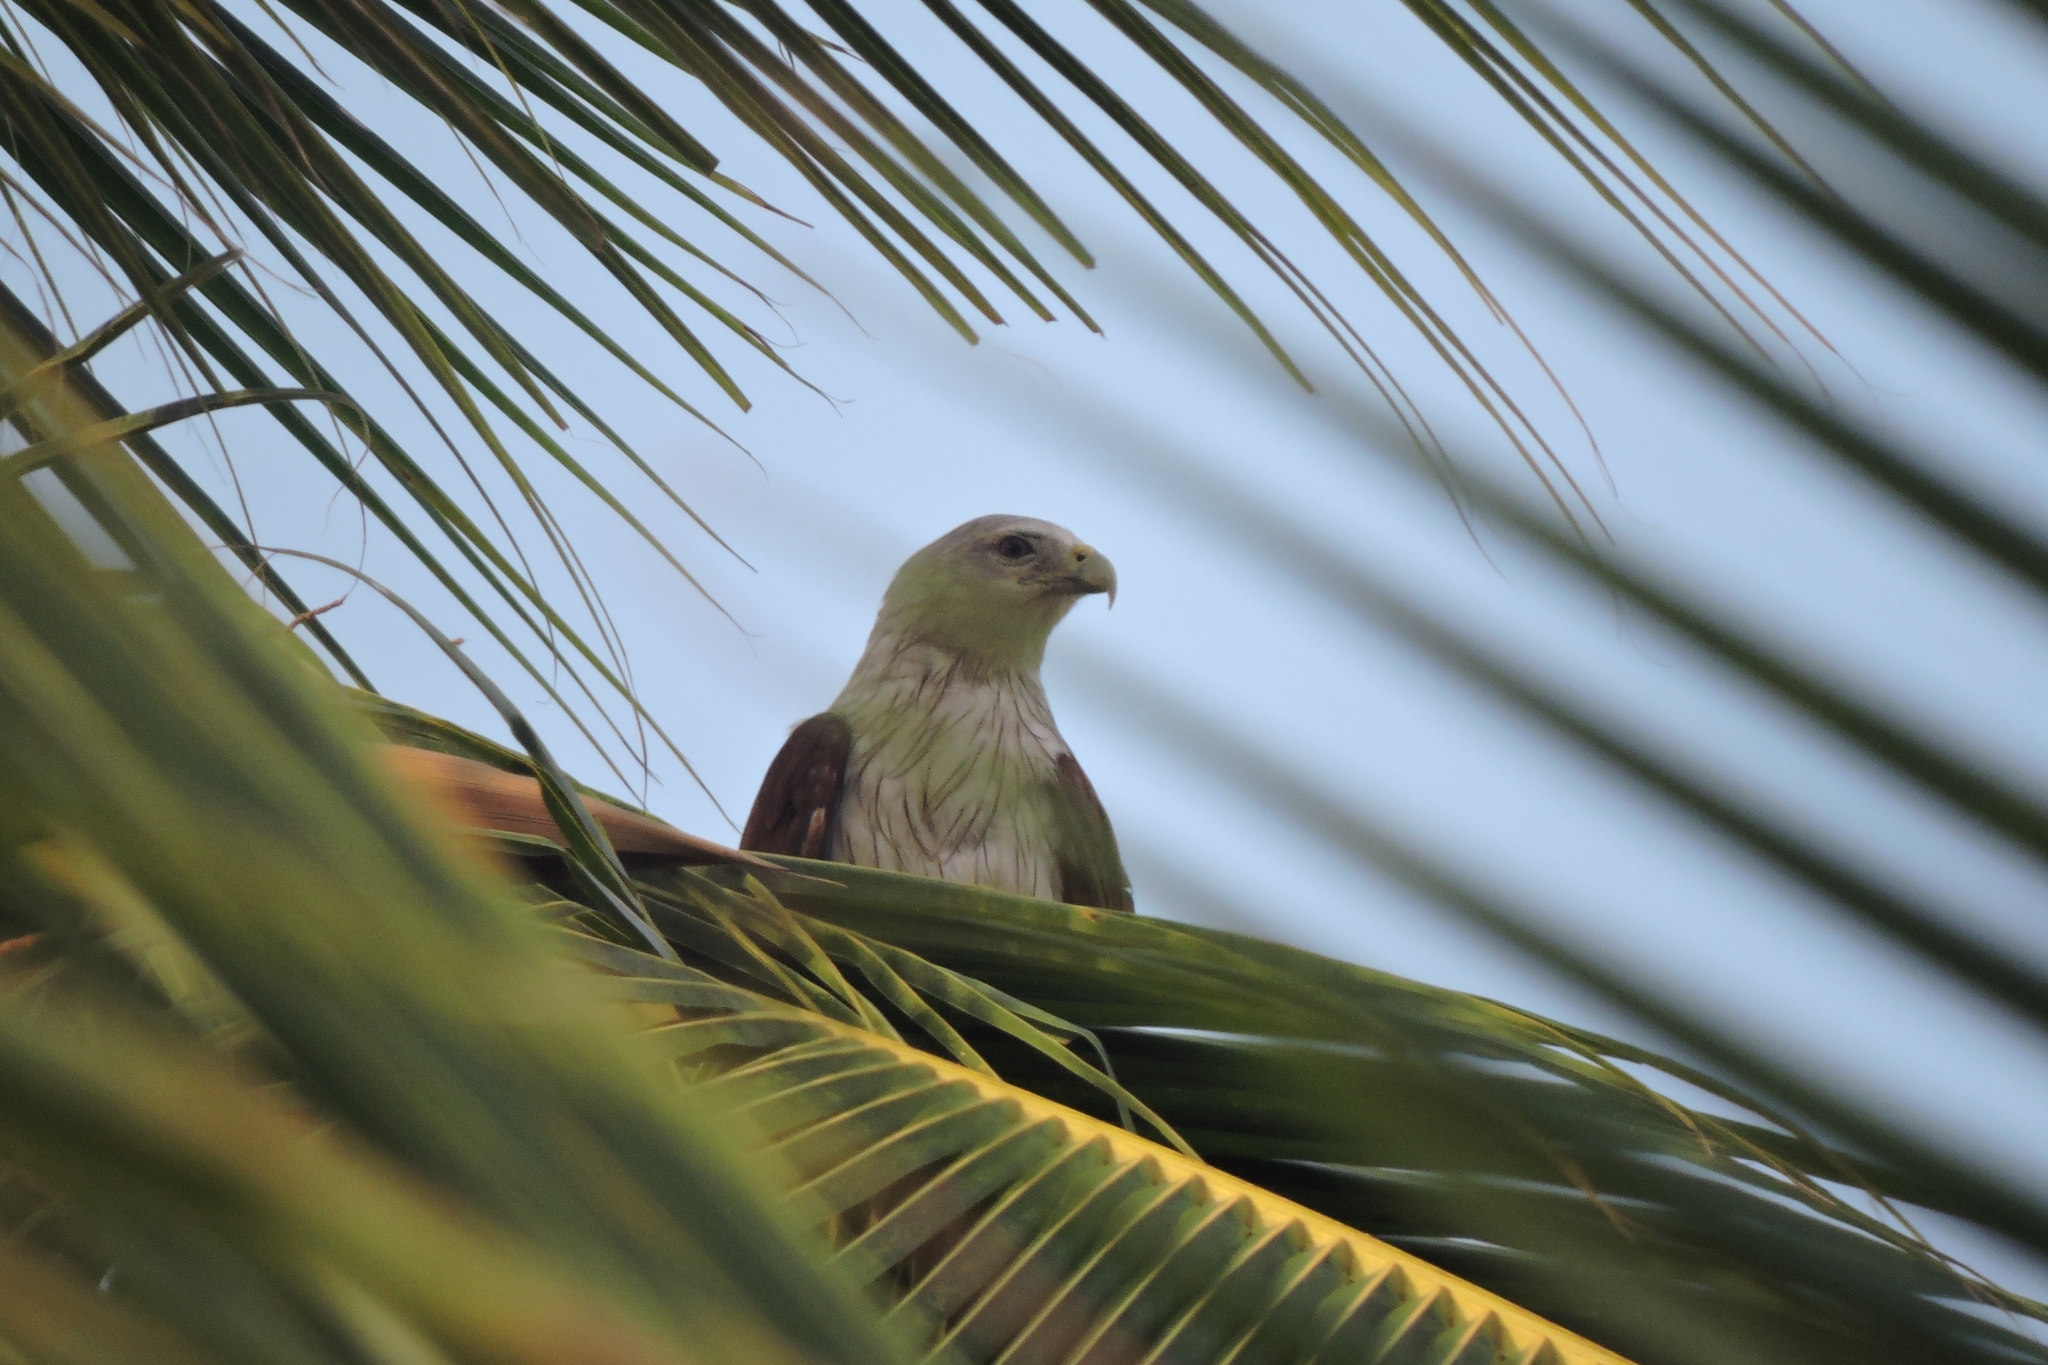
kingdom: Animalia
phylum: Chordata
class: Aves
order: Accipitriformes
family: Accipitridae
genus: Haliastur
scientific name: Haliastur indus
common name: Brahminy kite
